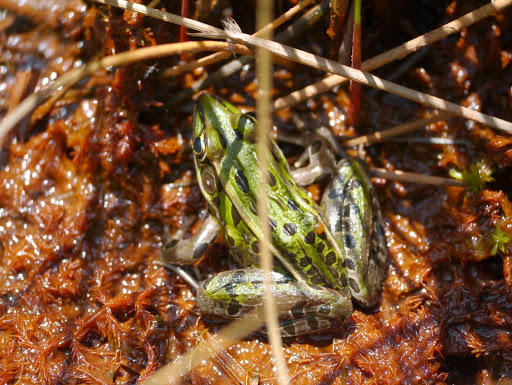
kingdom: Animalia
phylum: Chordata
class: Amphibia
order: Anura
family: Ranidae
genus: Lithobates
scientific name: Lithobates sphenocephalus
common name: Southern leopard frog
